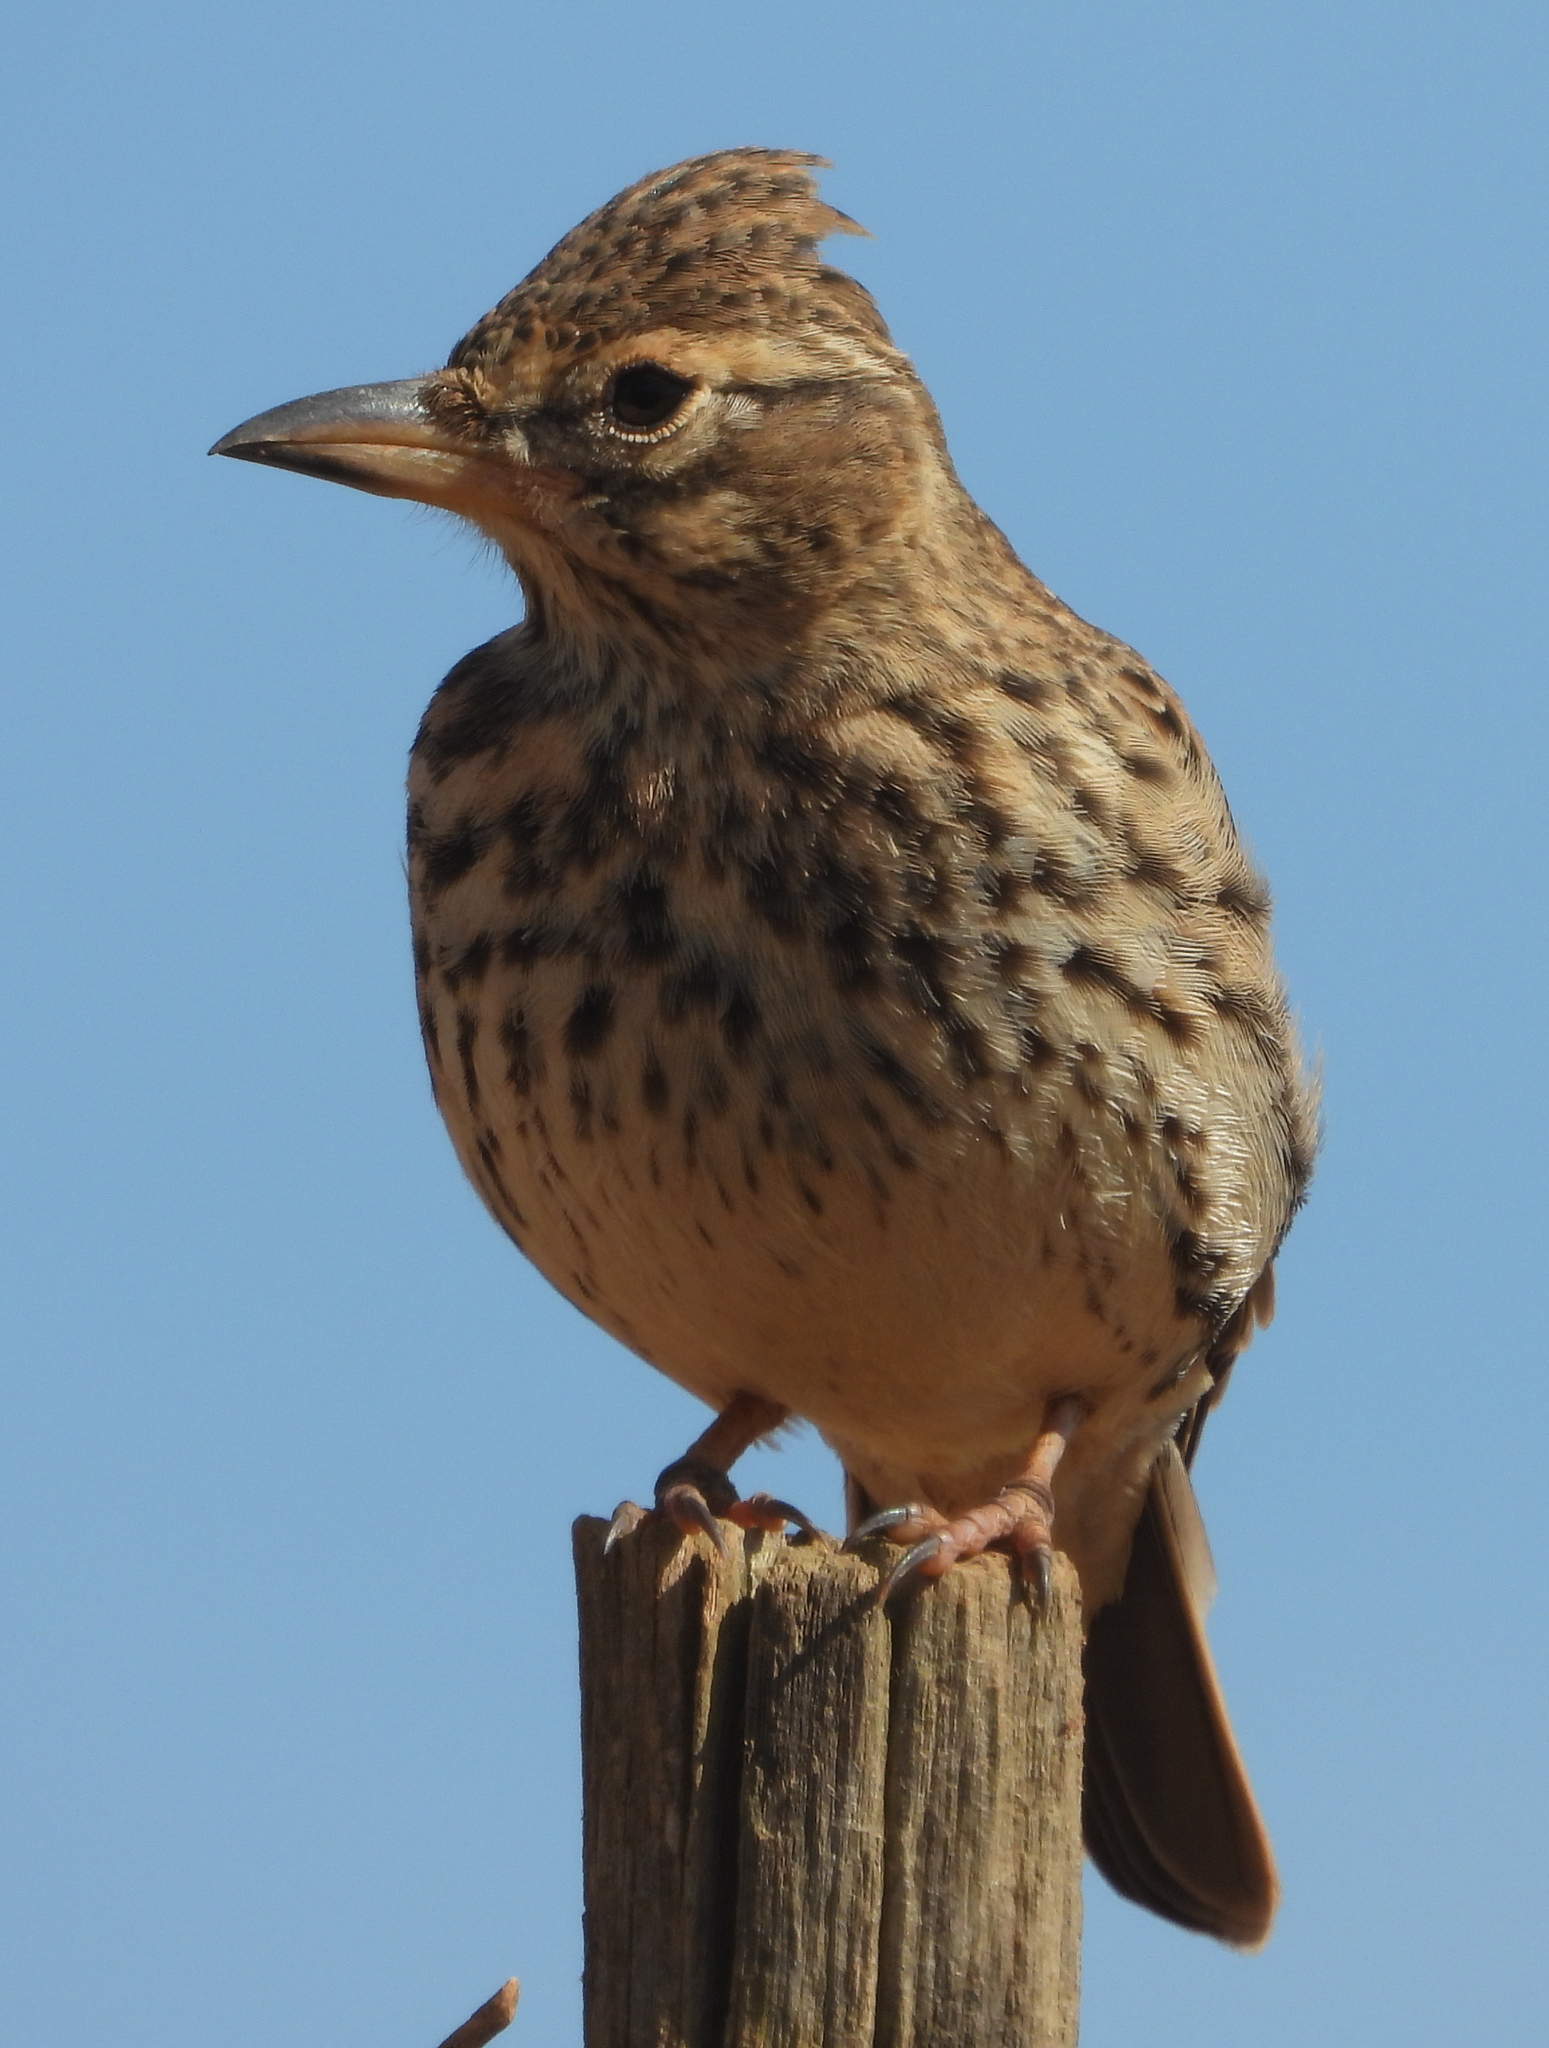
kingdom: Animalia
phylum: Chordata
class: Aves
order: Passeriformes
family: Alaudidae
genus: Galerida
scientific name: Galerida magnirostris
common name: Large-billed lark
